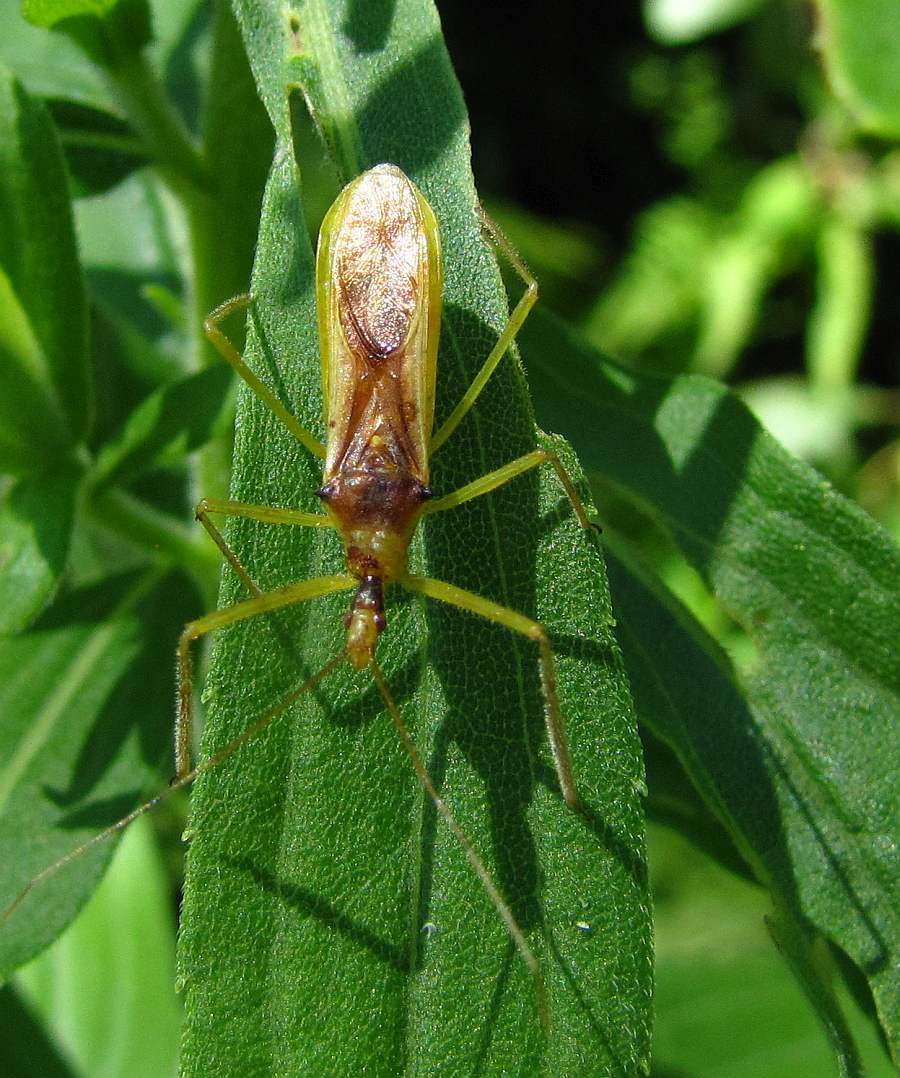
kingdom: Animalia
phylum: Arthropoda
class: Insecta
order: Hemiptera
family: Reduviidae
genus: Zelus
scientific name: Zelus luridus
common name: Pale green assassin bug
